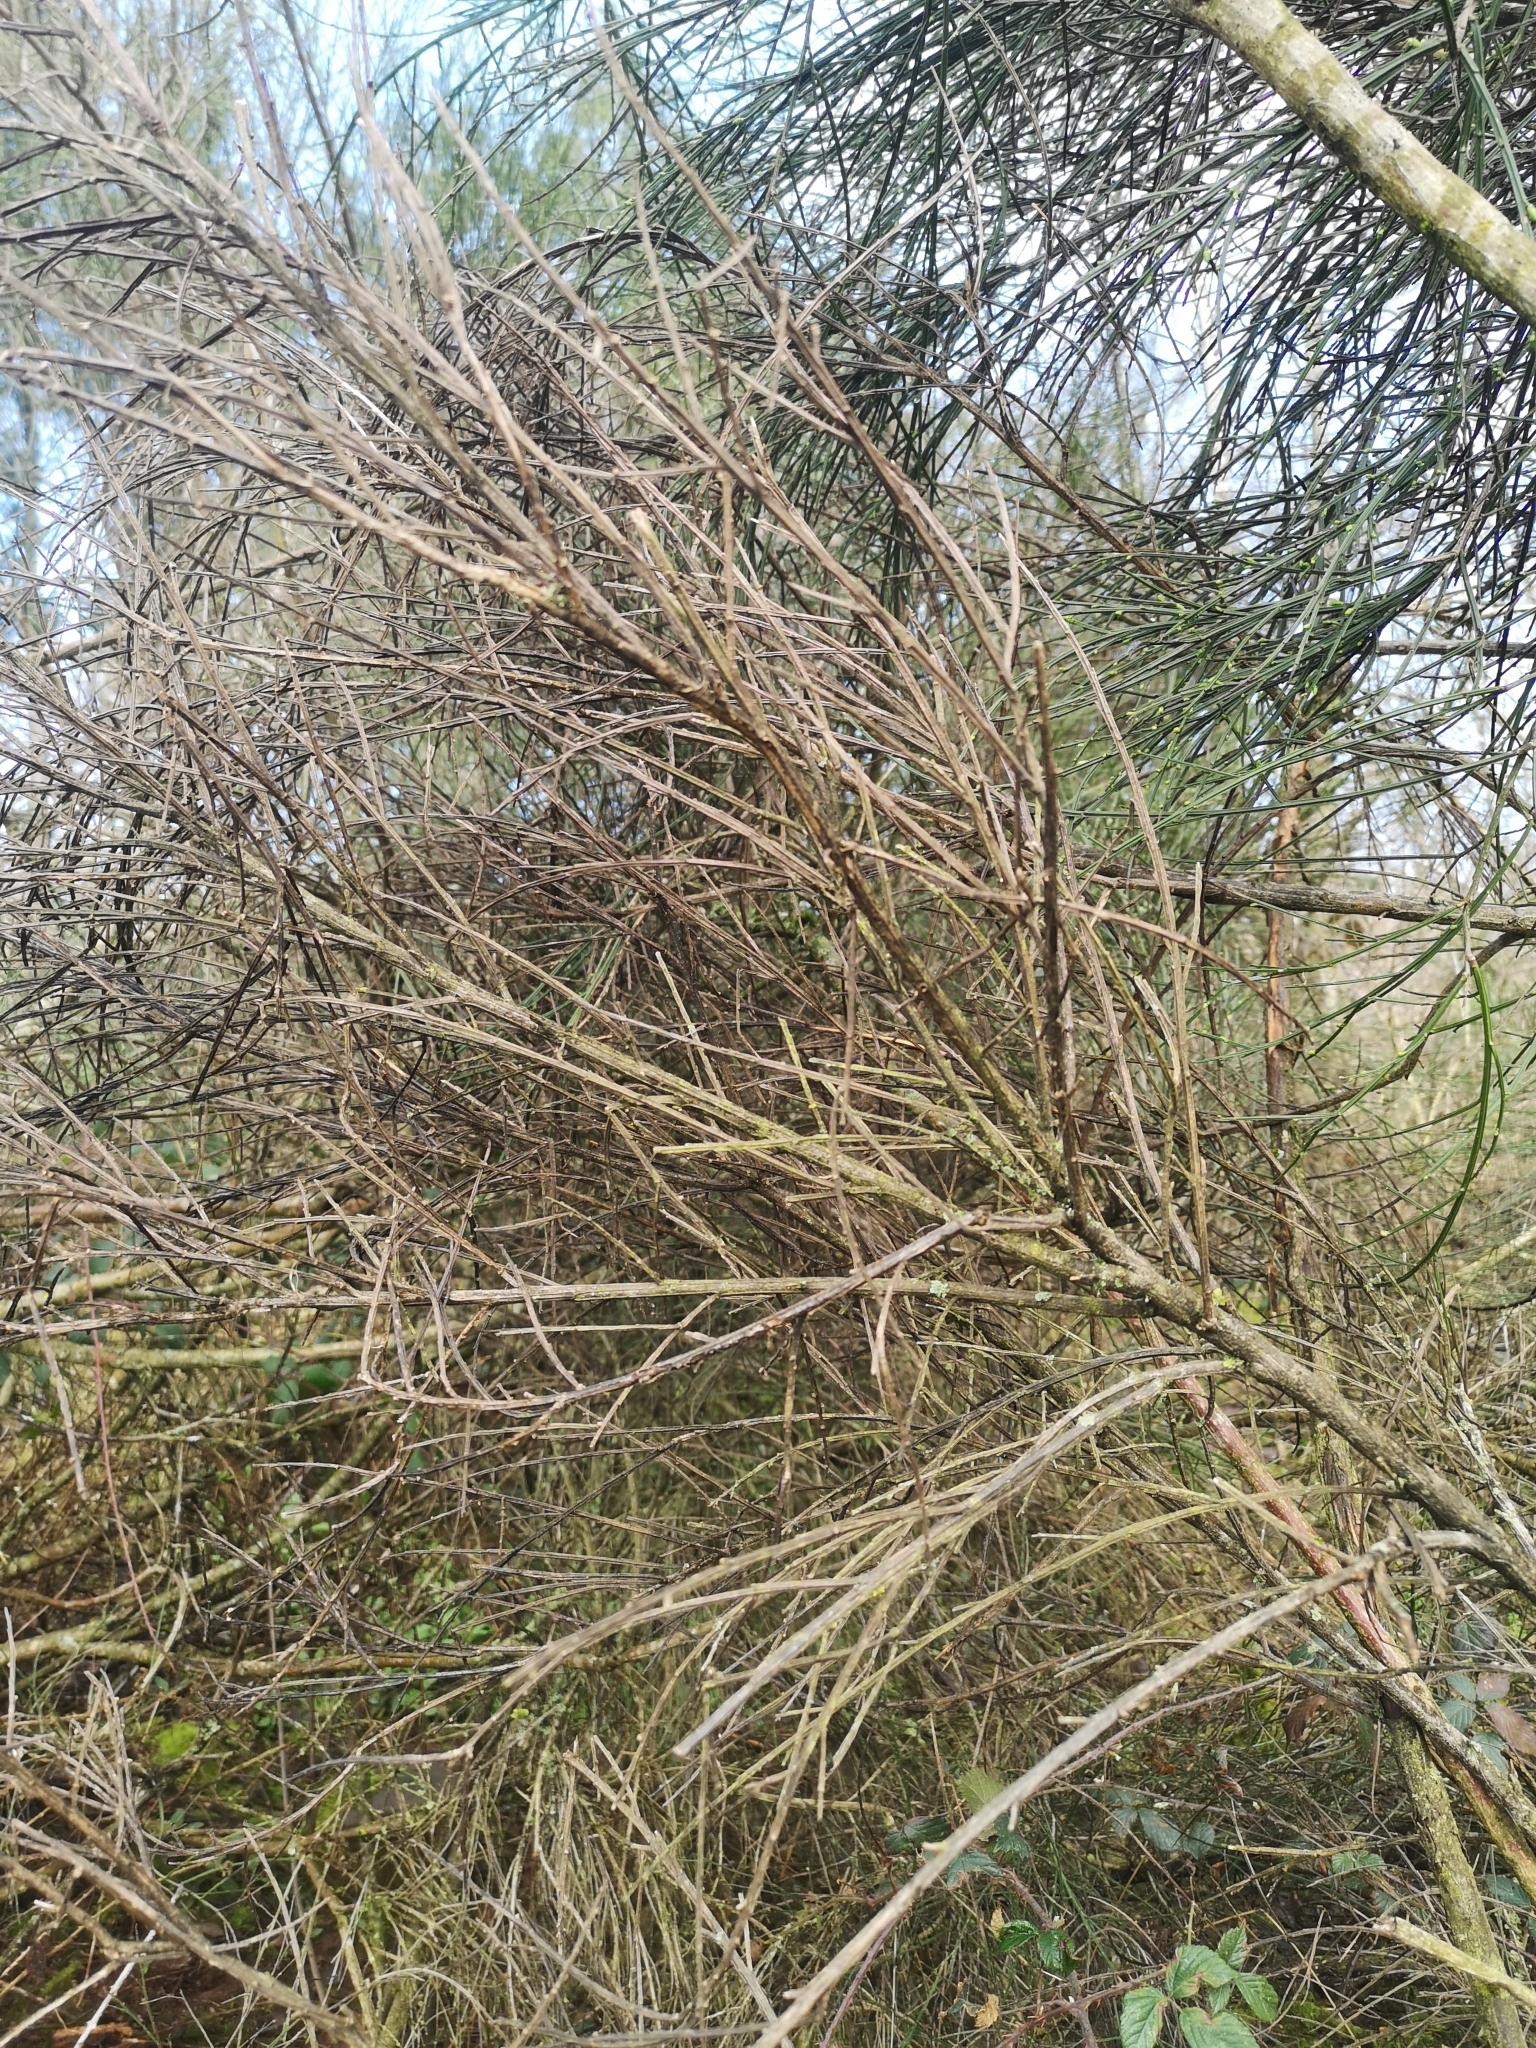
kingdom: Plantae
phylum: Tracheophyta
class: Magnoliopsida
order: Fabales
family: Fabaceae
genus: Cytisus
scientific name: Cytisus scoparius
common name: Scotch broom
